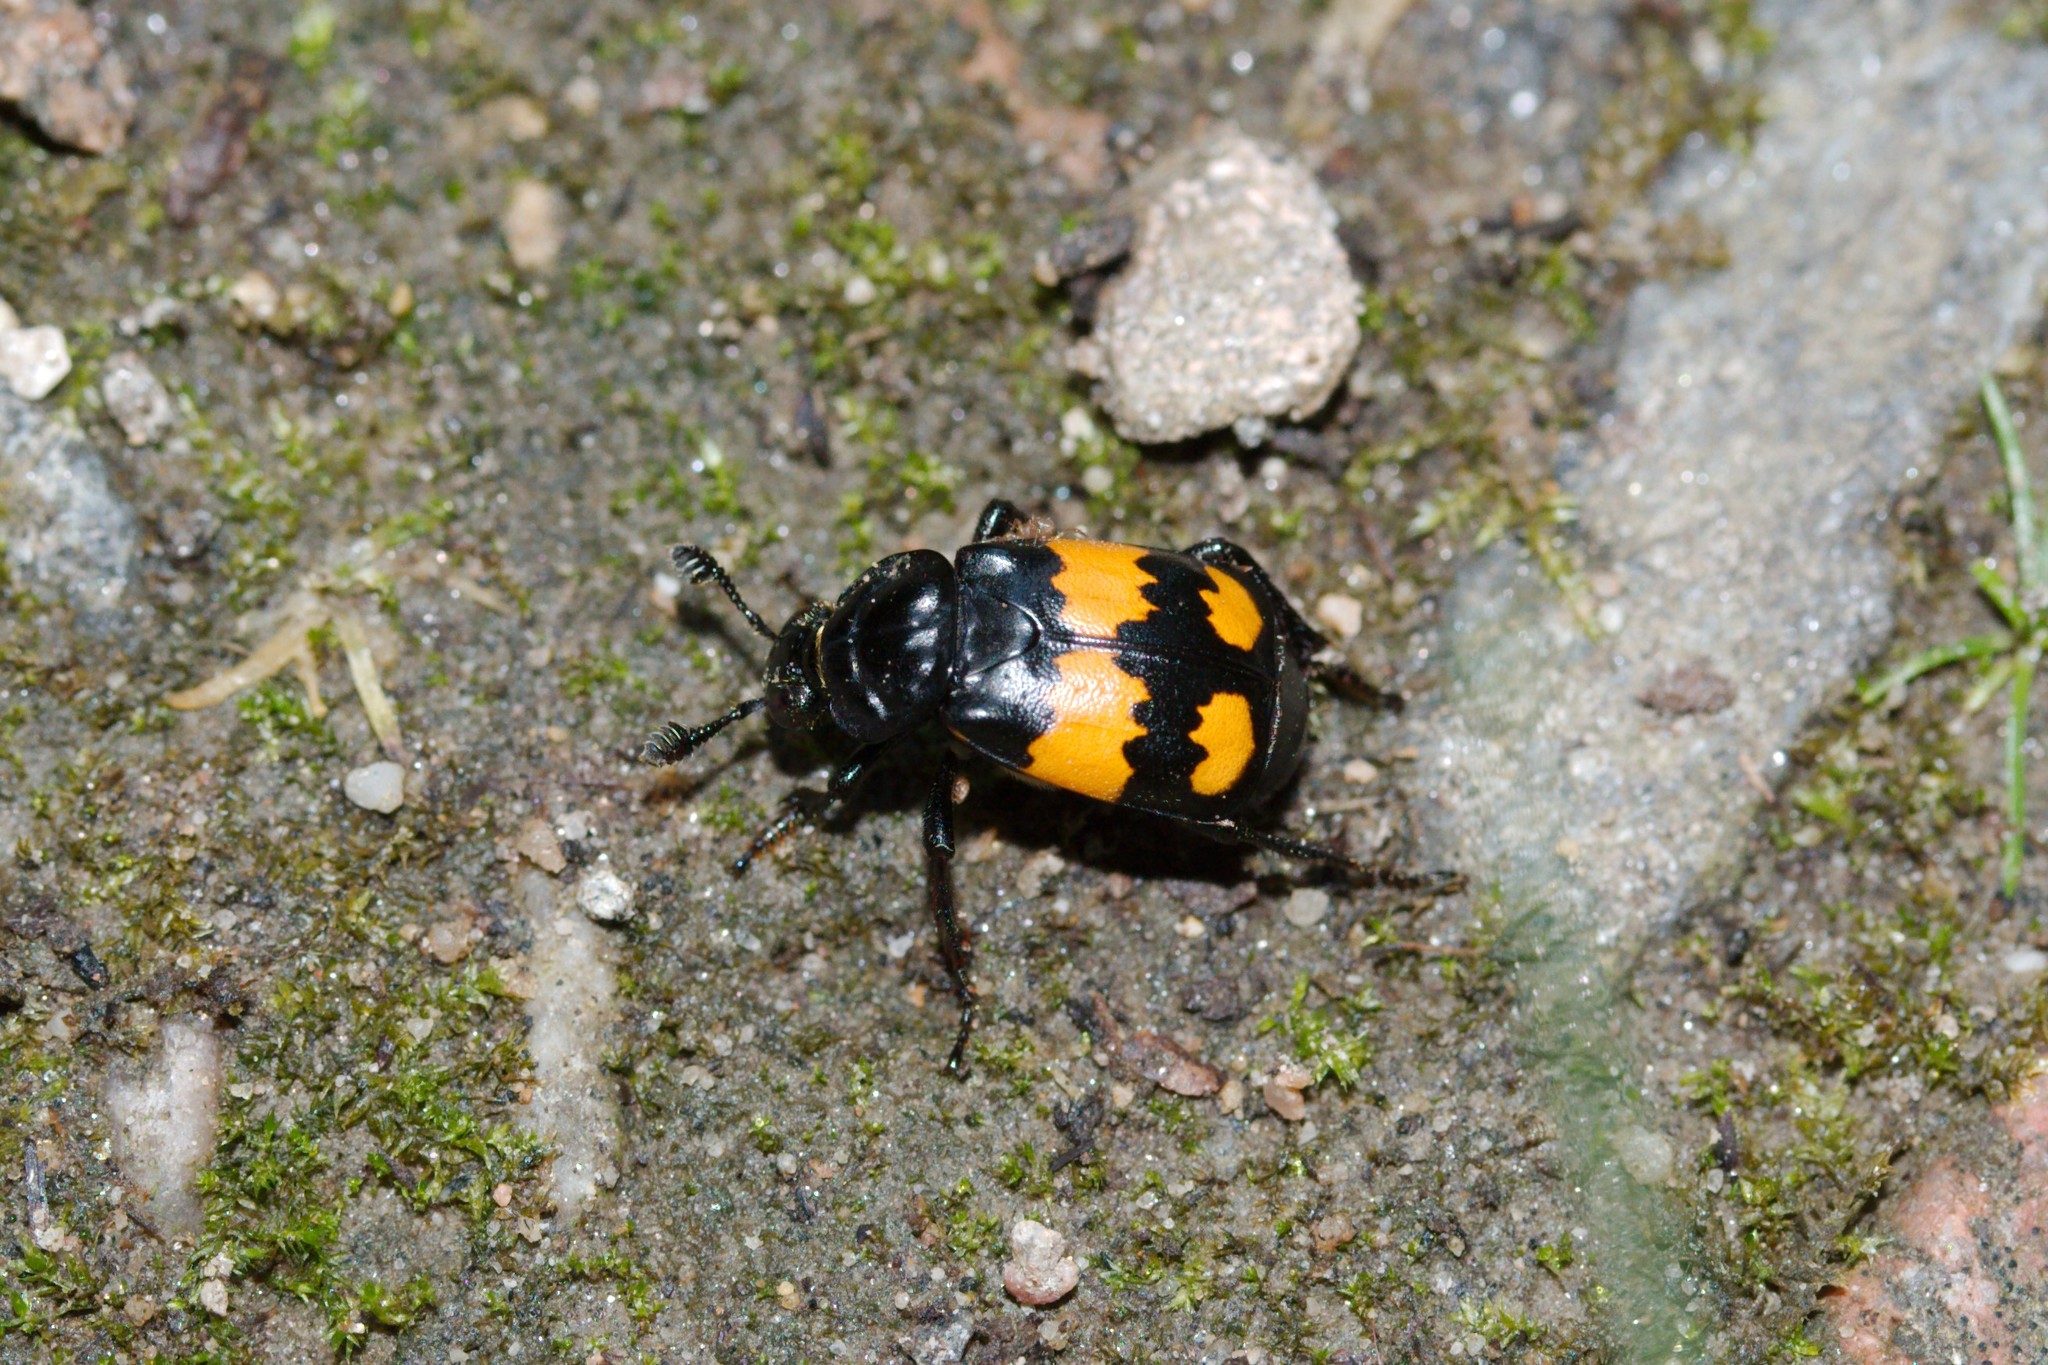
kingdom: Animalia
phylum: Arthropoda
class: Insecta
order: Coleoptera
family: Staphylinidae
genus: Nicrophorus
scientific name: Nicrophorus vespilloides
